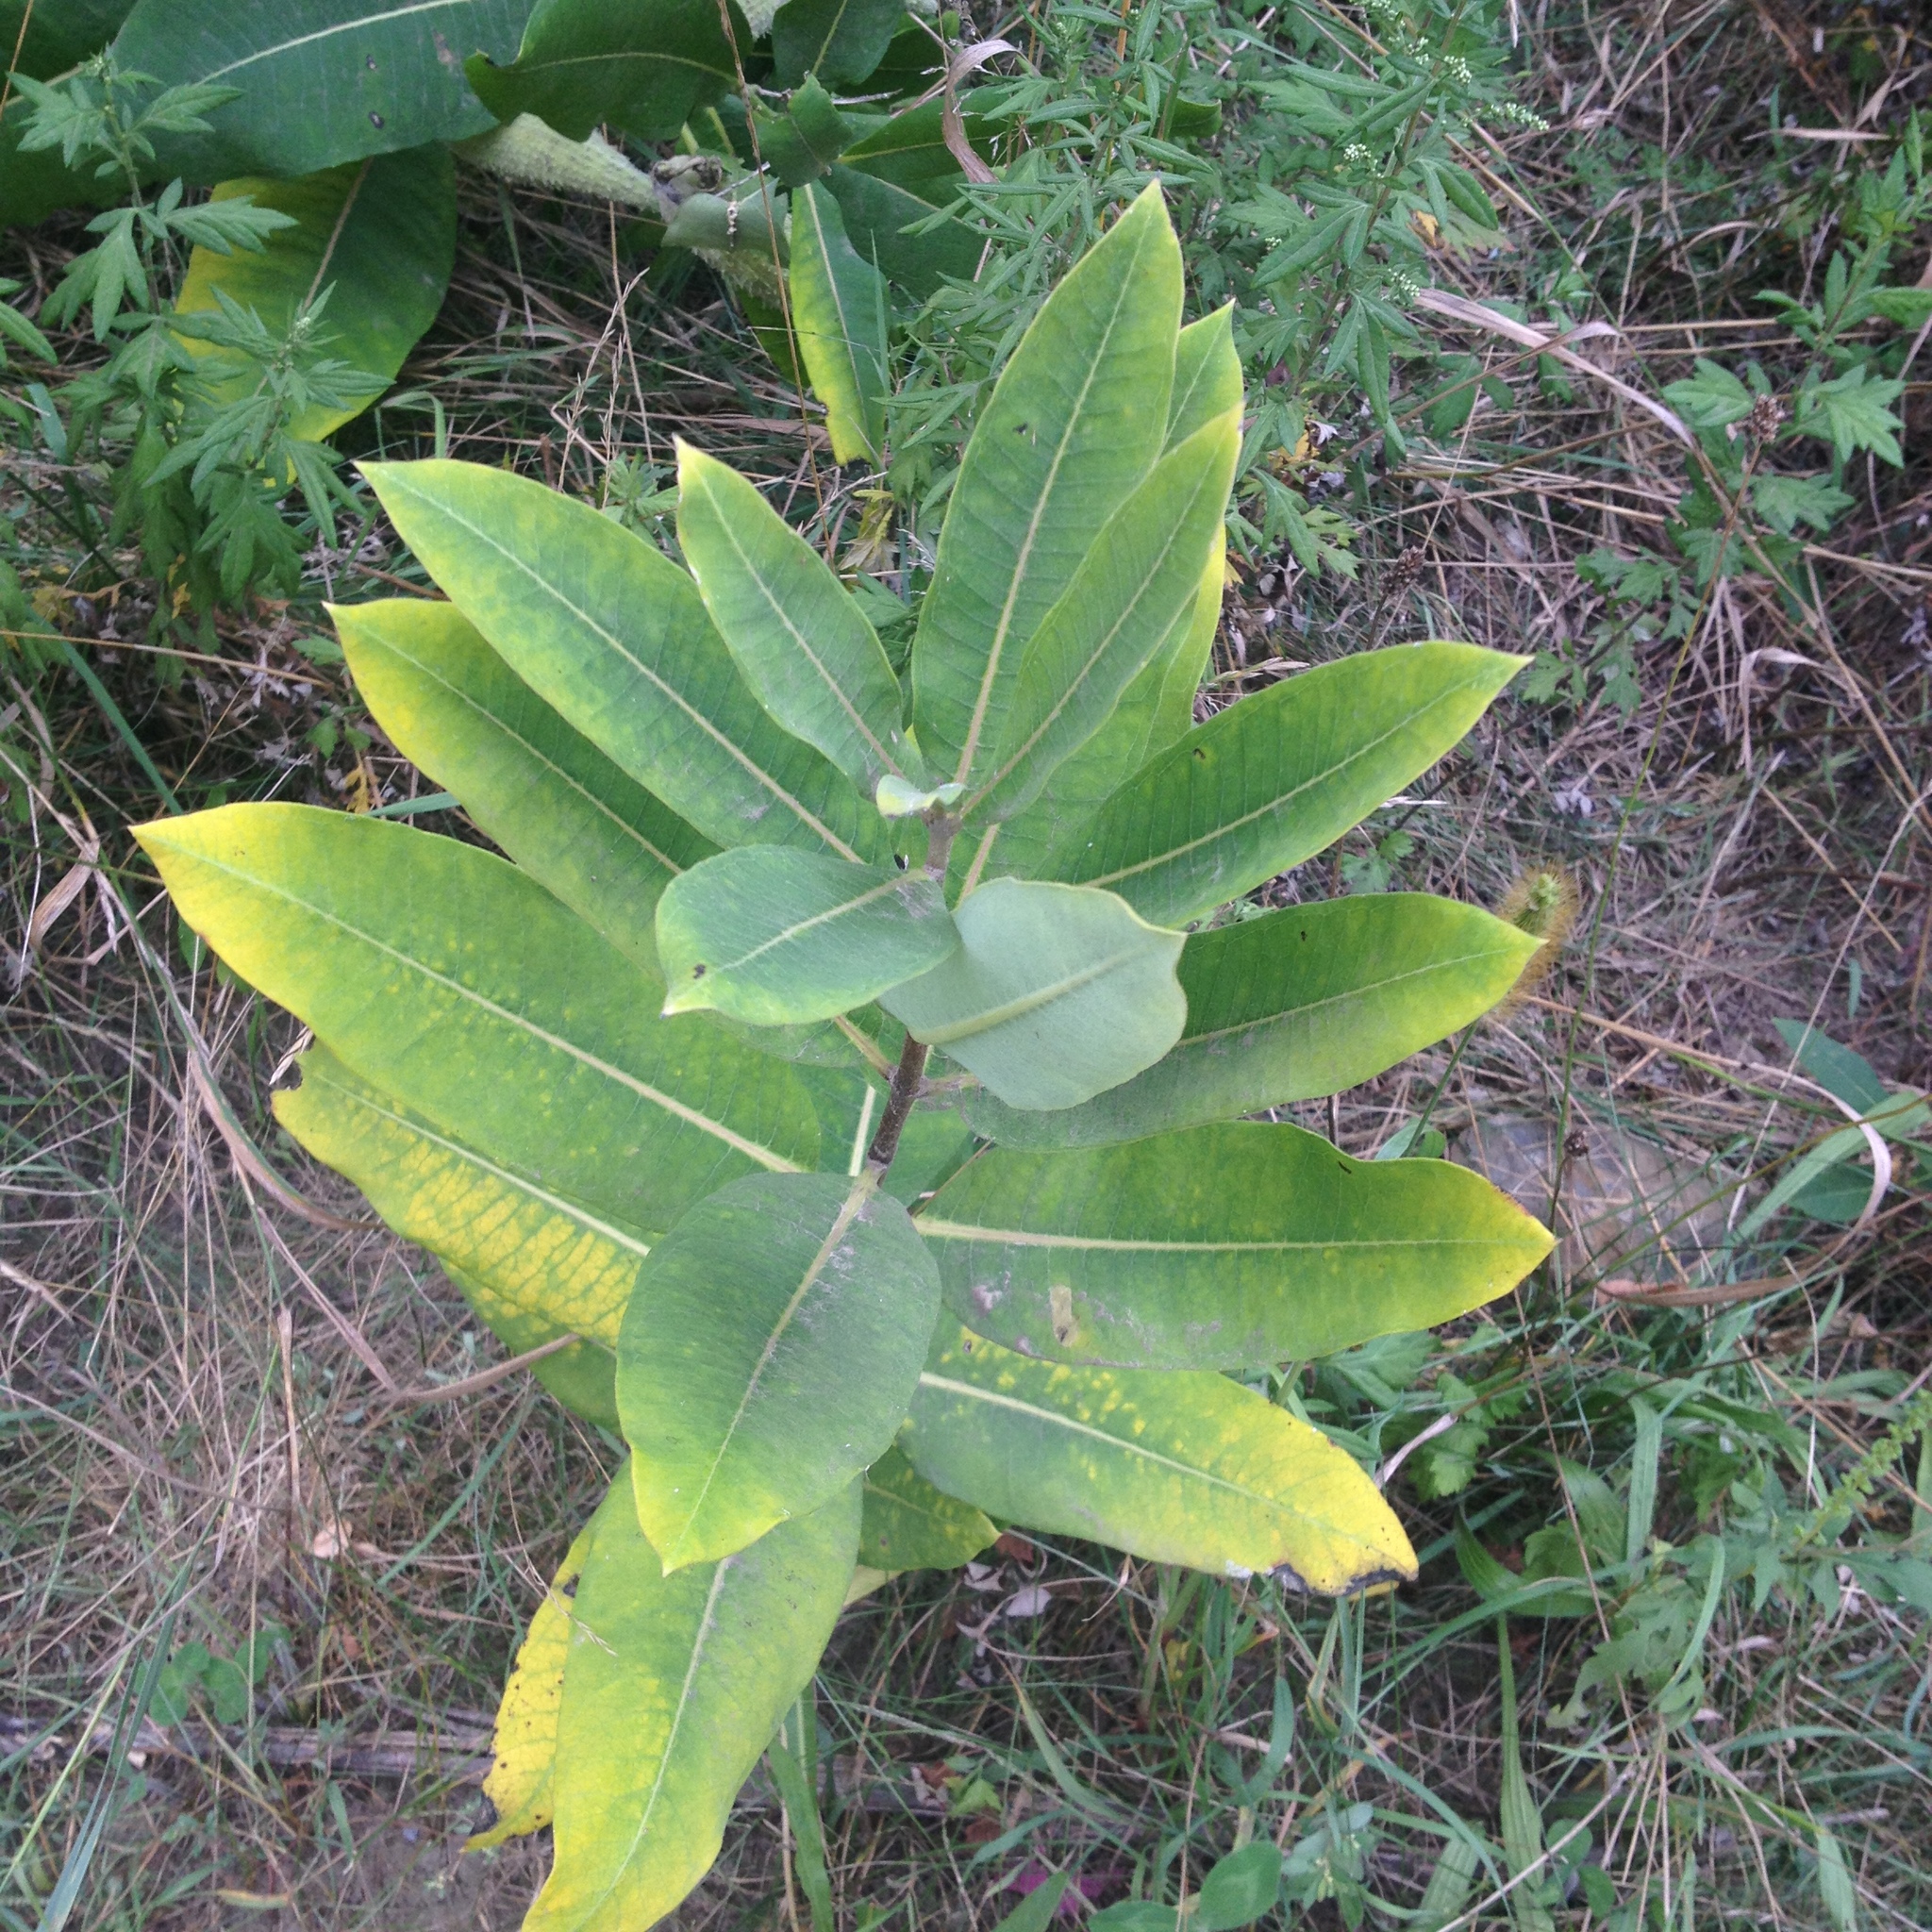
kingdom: Plantae
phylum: Tracheophyta
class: Magnoliopsida
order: Gentianales
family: Apocynaceae
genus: Asclepias
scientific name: Asclepias syriaca
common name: Common milkweed
